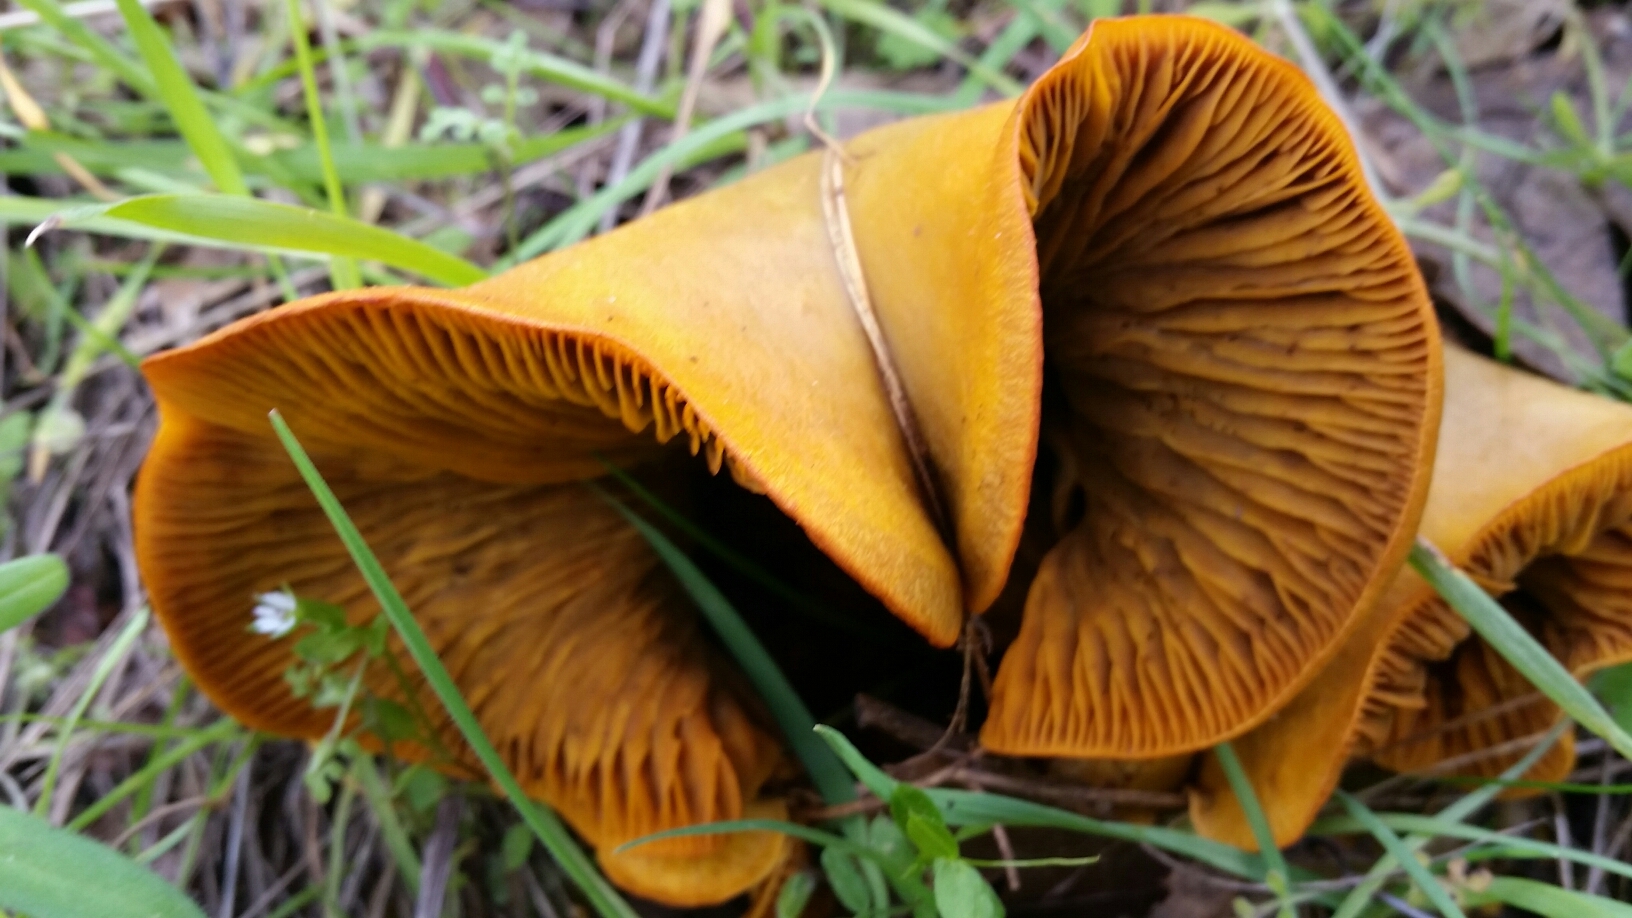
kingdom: Fungi
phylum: Basidiomycota
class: Agaricomycetes
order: Agaricales
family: Omphalotaceae
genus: Omphalotus
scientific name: Omphalotus olivascens
